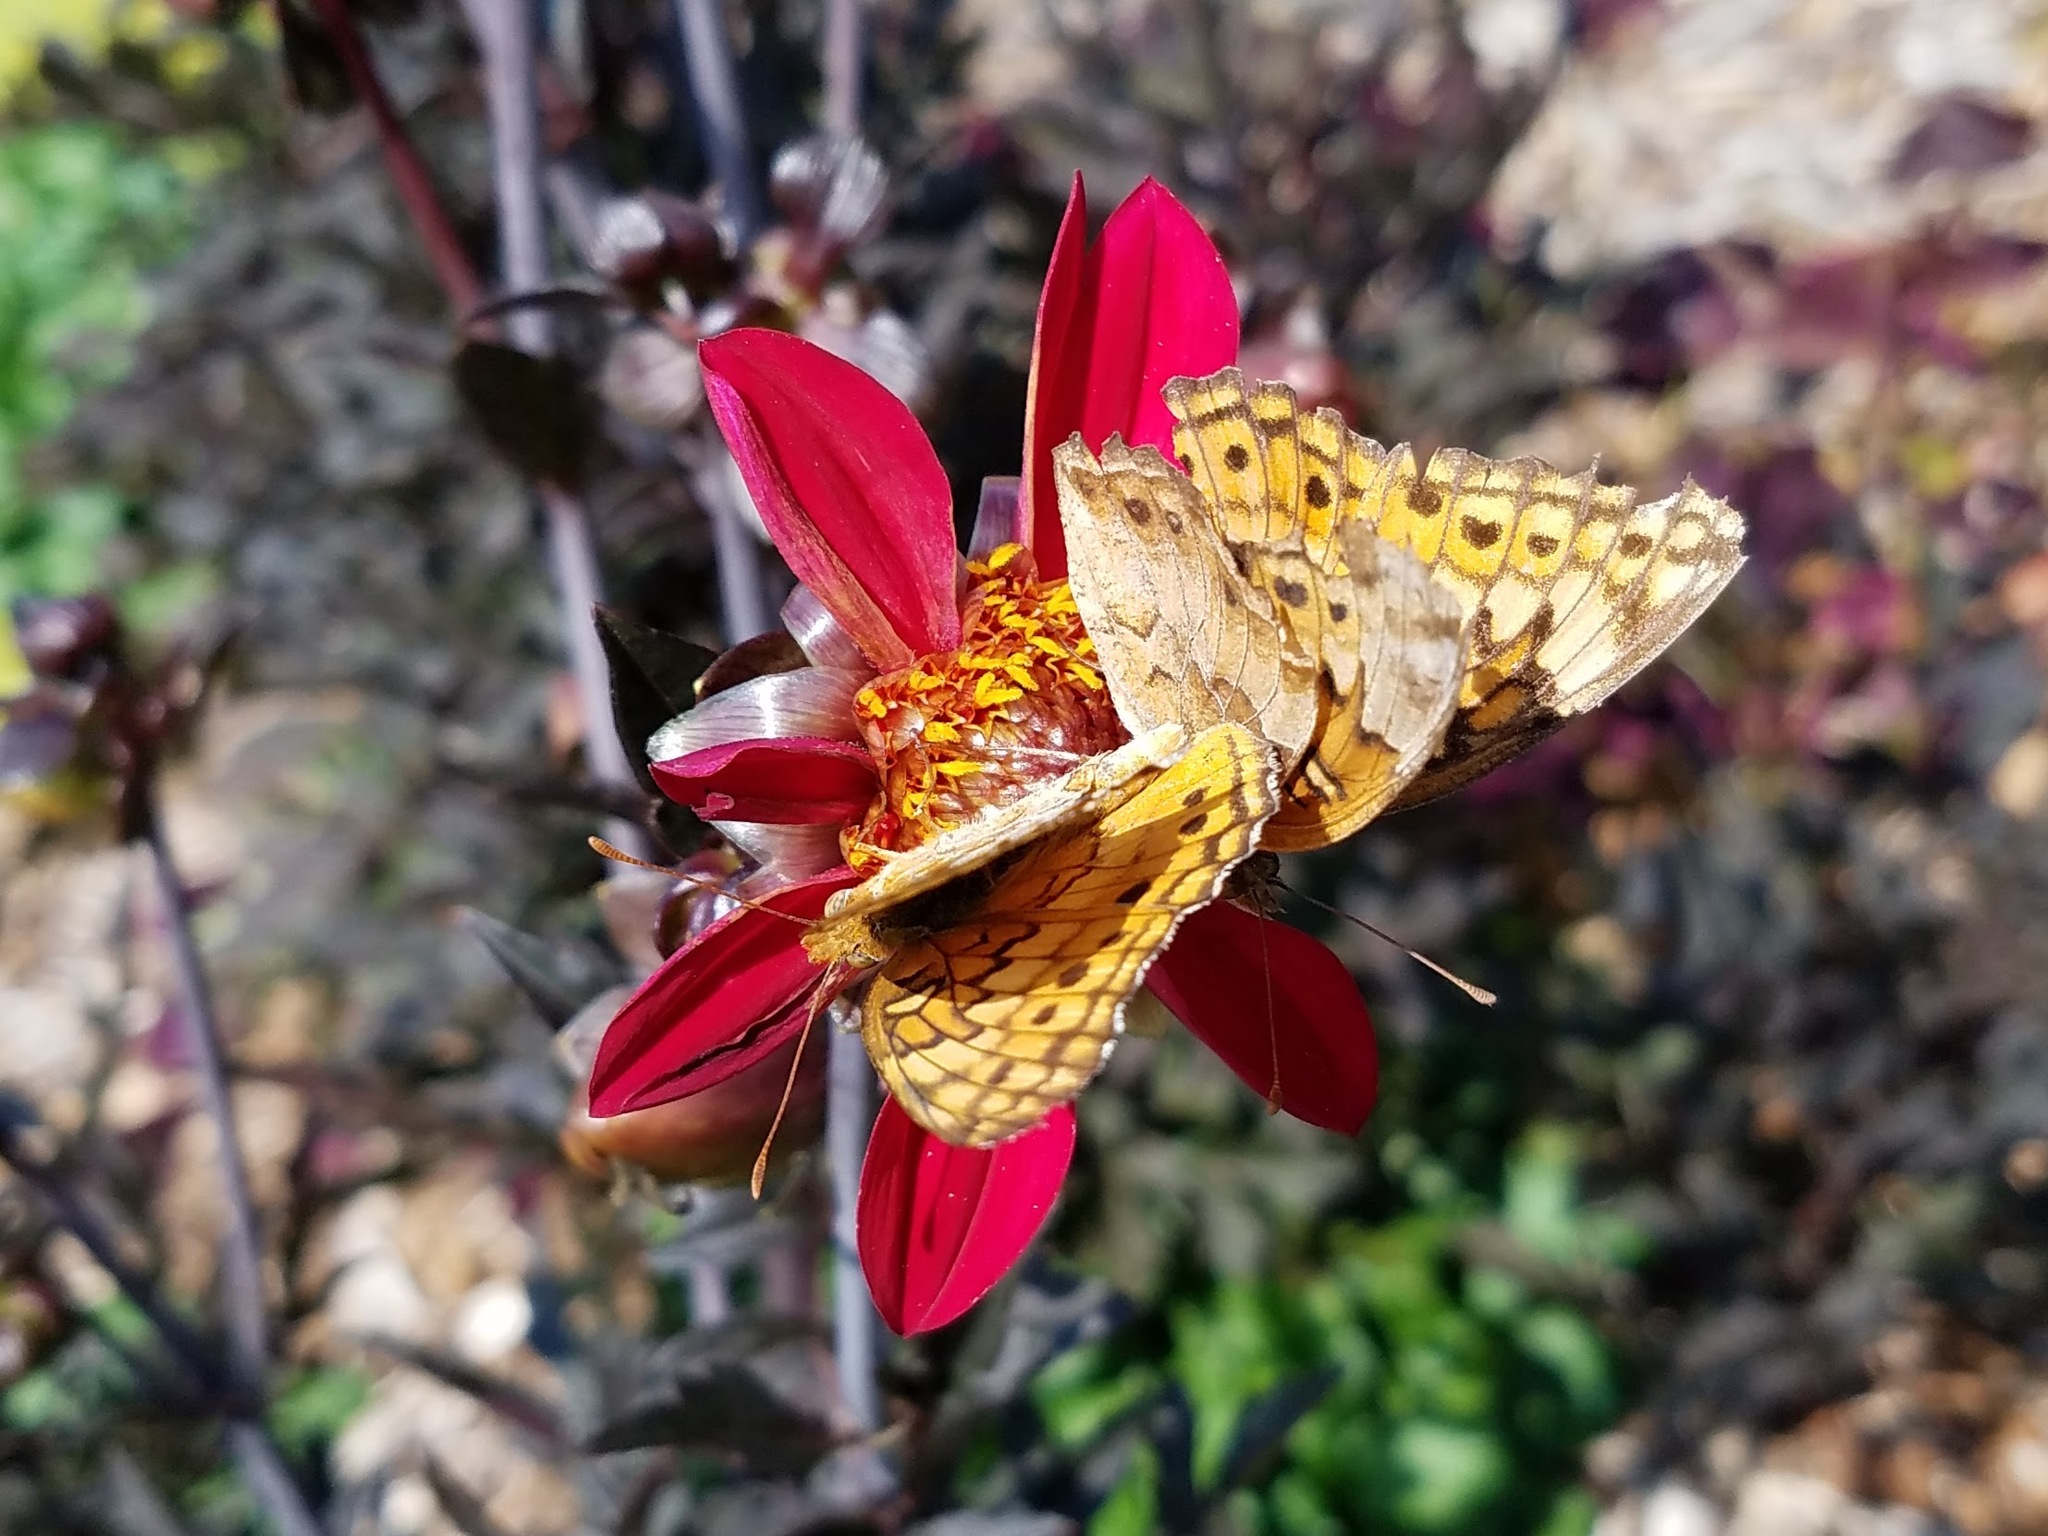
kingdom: Animalia
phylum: Arthropoda
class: Insecta
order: Lepidoptera
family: Nymphalidae
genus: Euptoieta
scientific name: Euptoieta claudia
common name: Variegated fritillary
